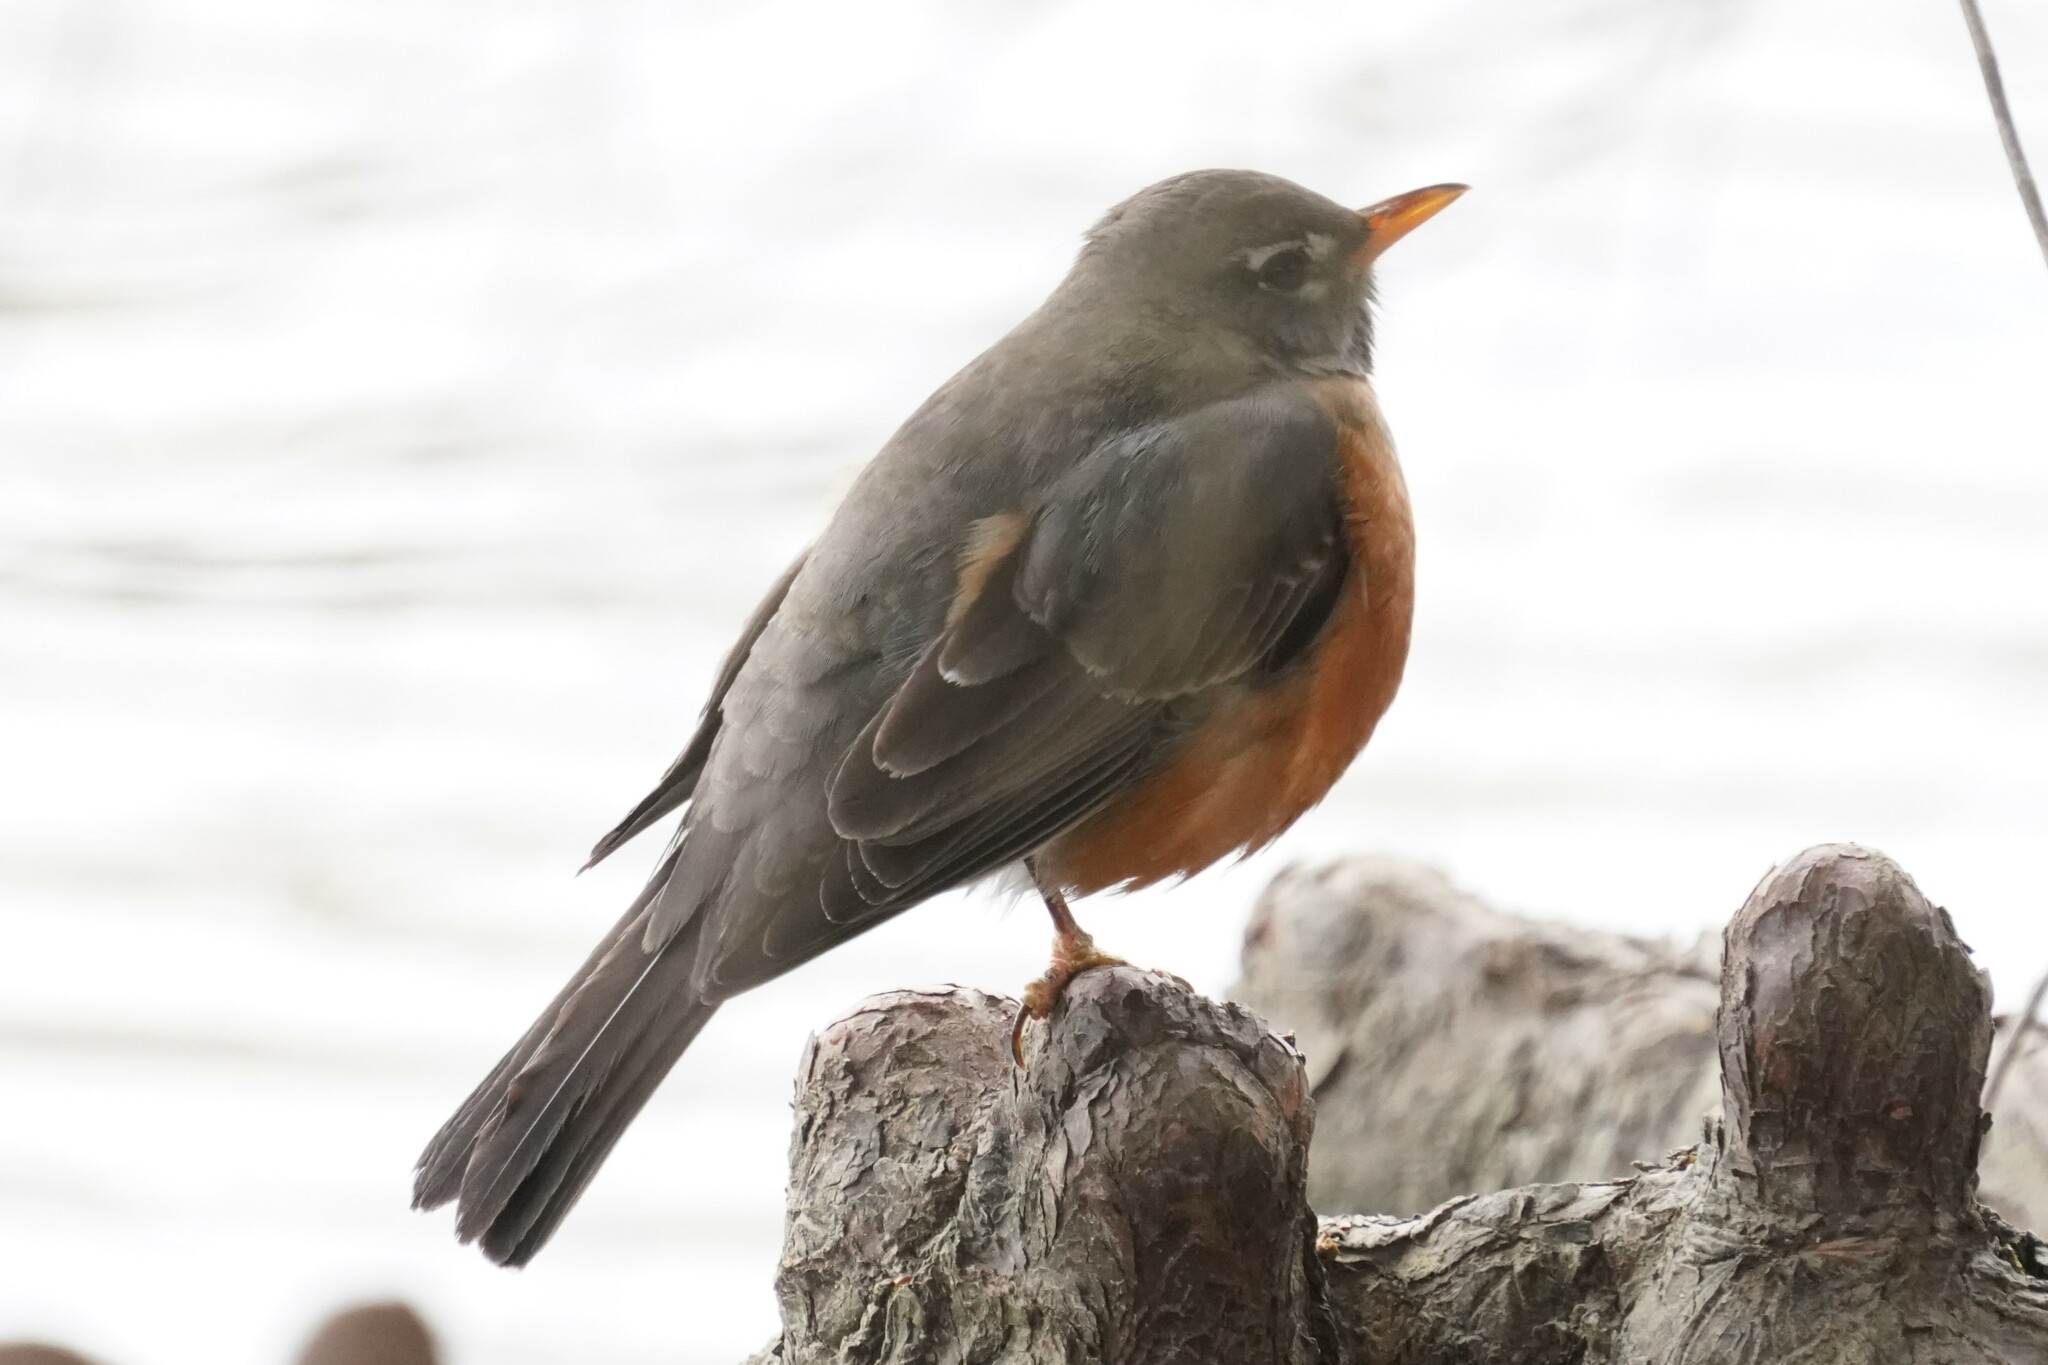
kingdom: Animalia
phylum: Chordata
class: Aves
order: Passeriformes
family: Turdidae
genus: Turdus
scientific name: Turdus migratorius
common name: American robin
